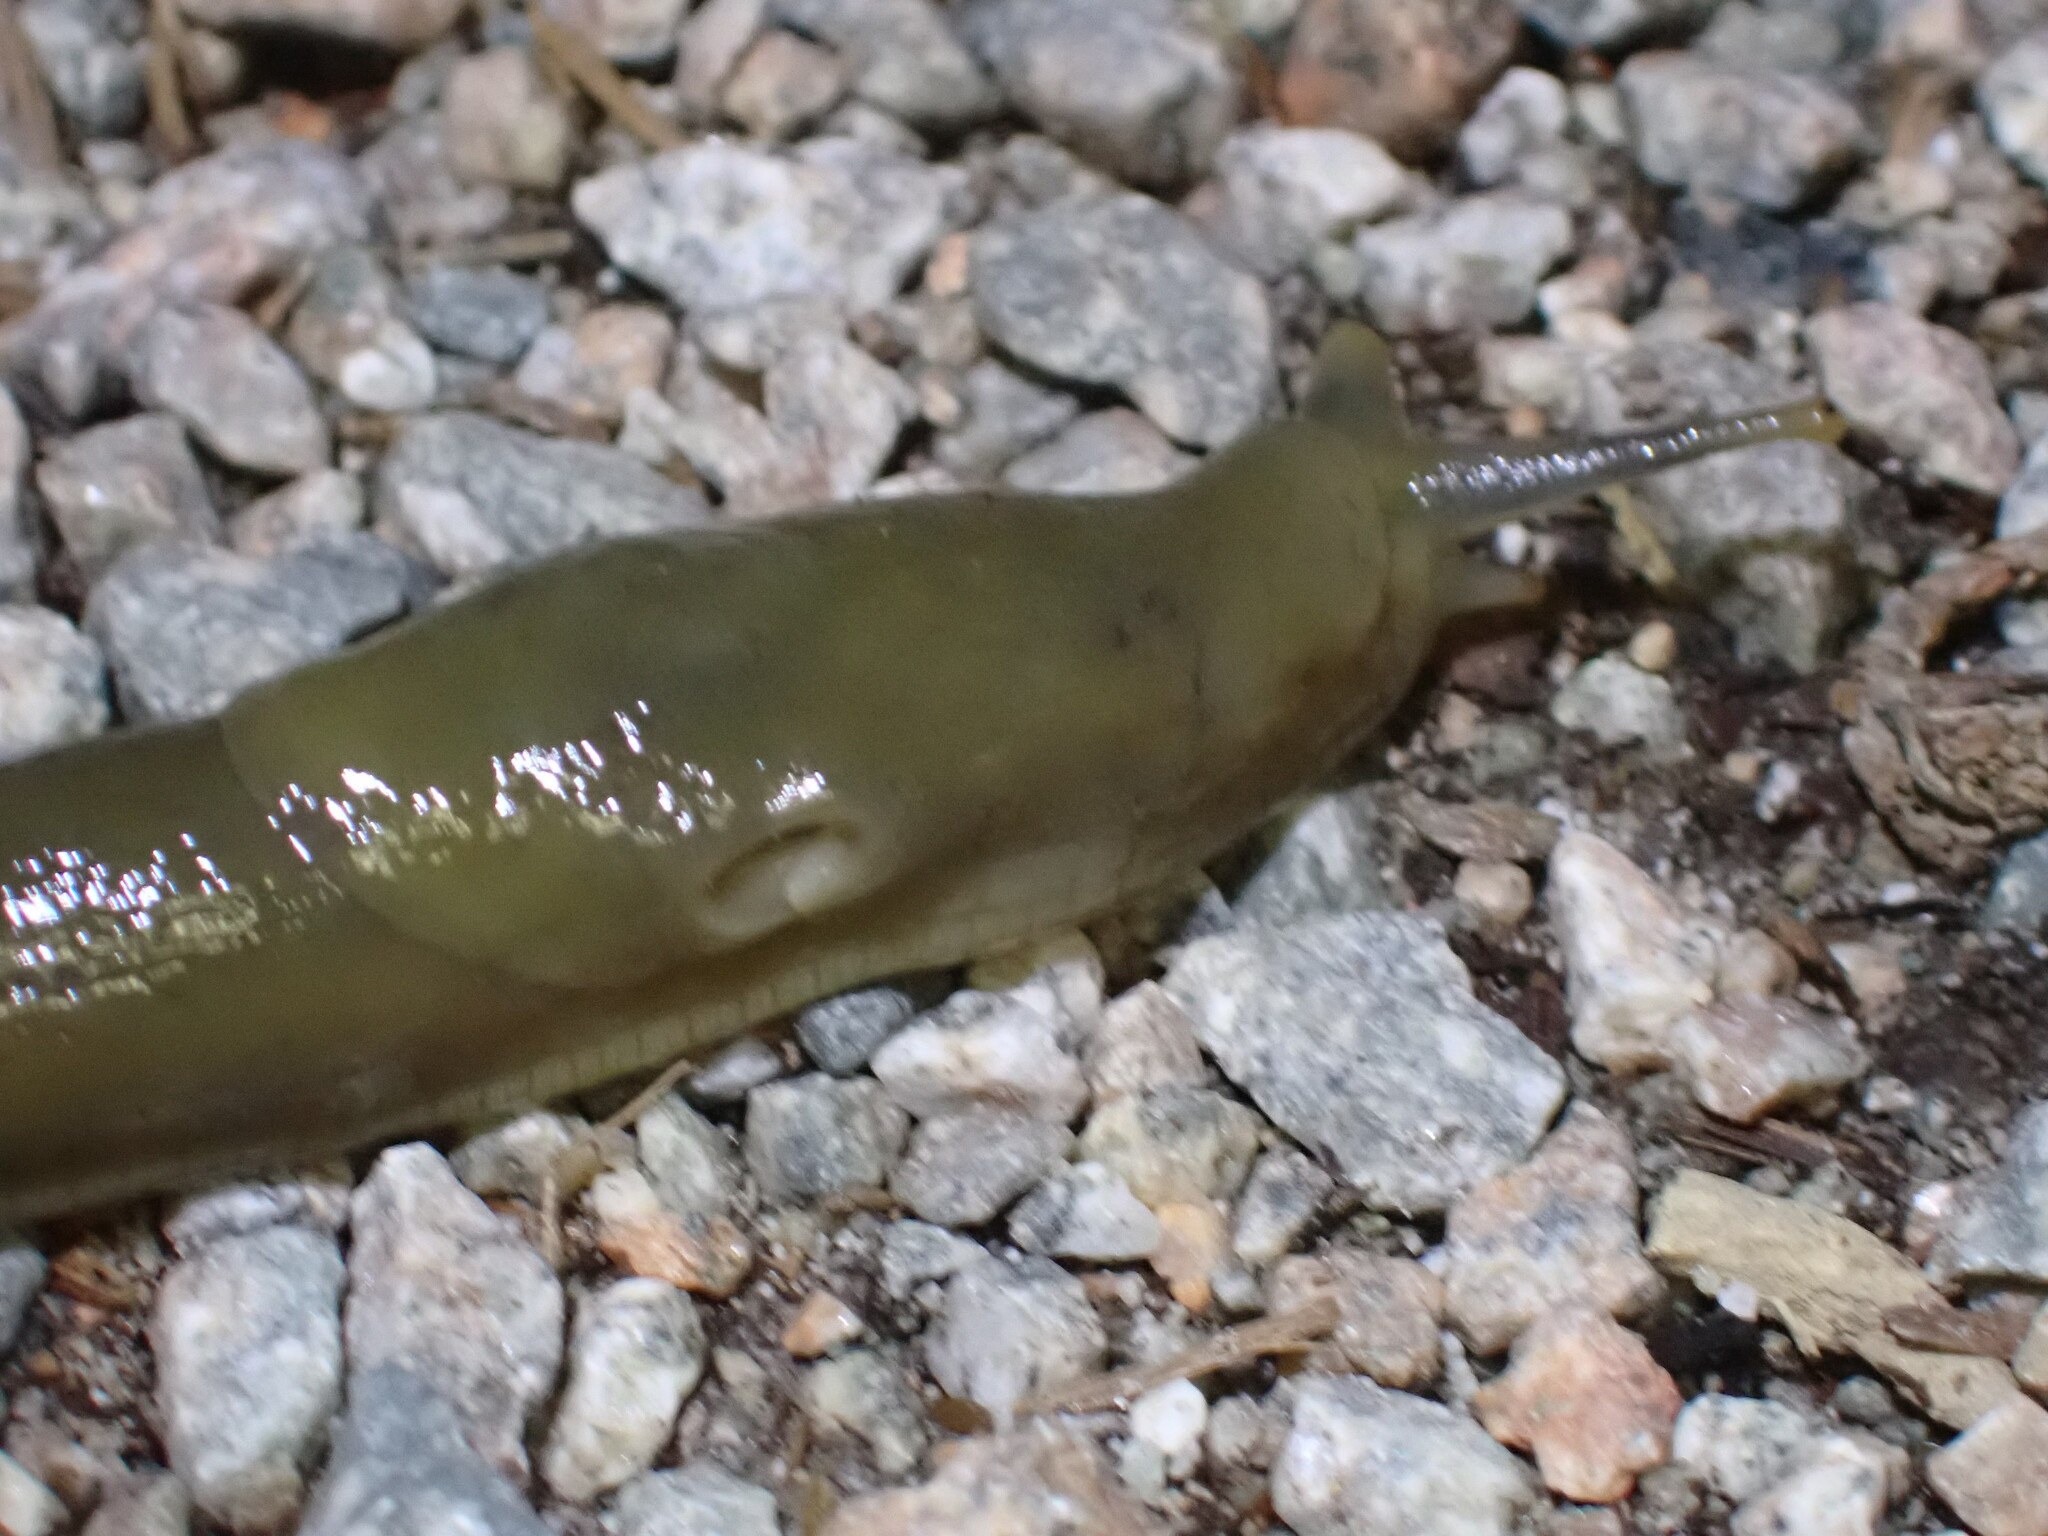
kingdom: Animalia
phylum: Mollusca
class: Gastropoda
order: Stylommatophora
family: Ariolimacidae
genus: Ariolimax
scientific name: Ariolimax columbianus
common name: Pacific banana slug
